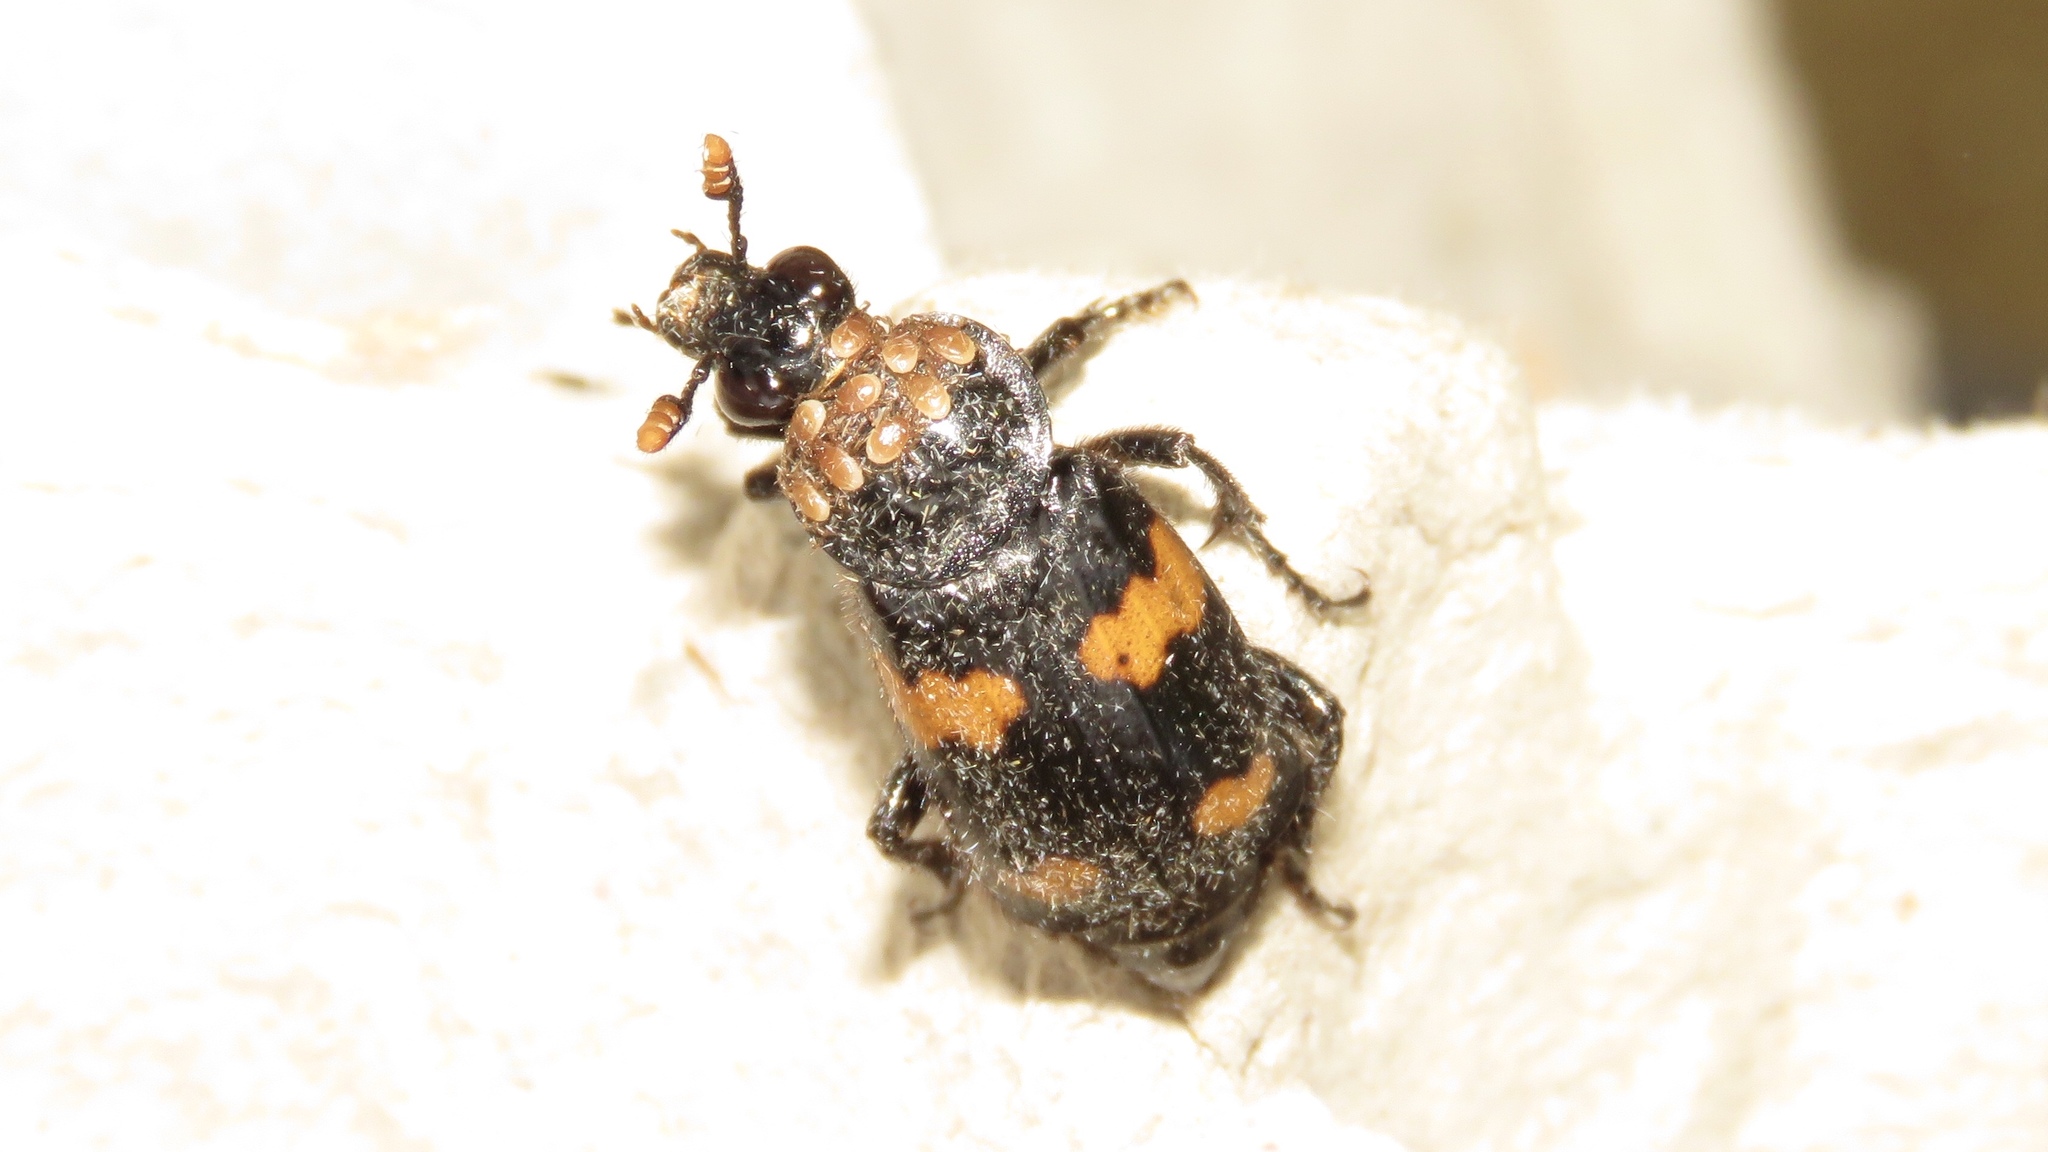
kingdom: Animalia
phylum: Arthropoda
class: Insecta
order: Coleoptera
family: Staphylinidae
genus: Nicrophorus
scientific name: Nicrophorus orbicollis
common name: Roundneck sexton beetle
